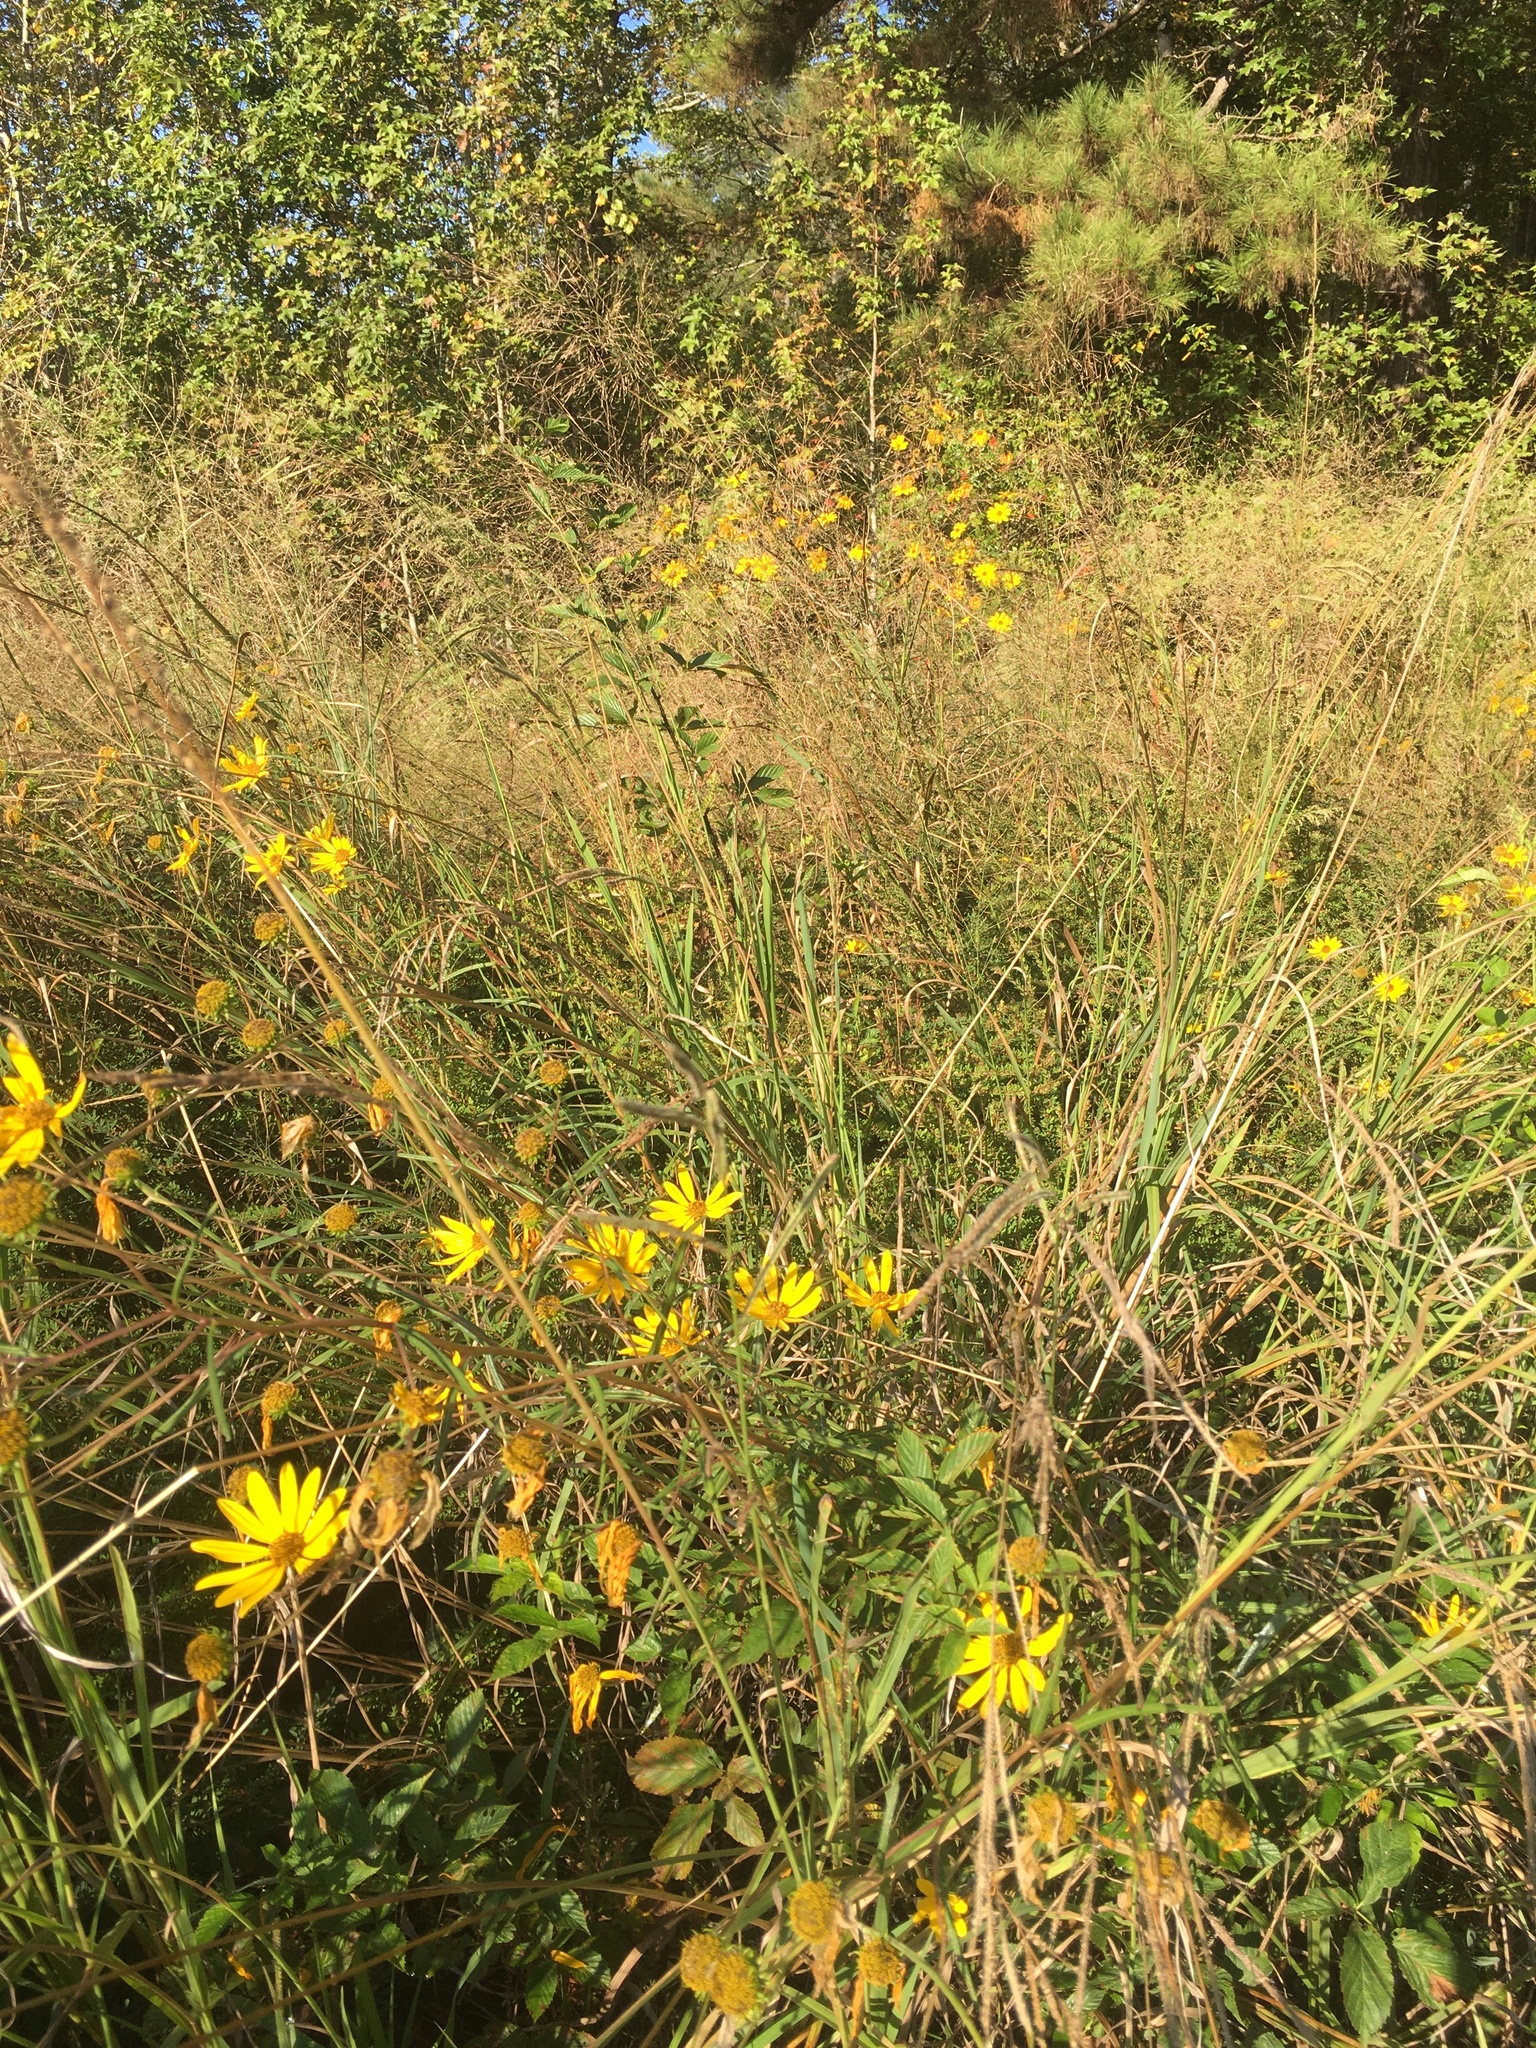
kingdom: Plantae
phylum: Tracheophyta
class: Magnoliopsida
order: Asterales
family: Asteraceae
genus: Helianthus
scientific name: Helianthus angustifolius
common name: Swamp sunflower
